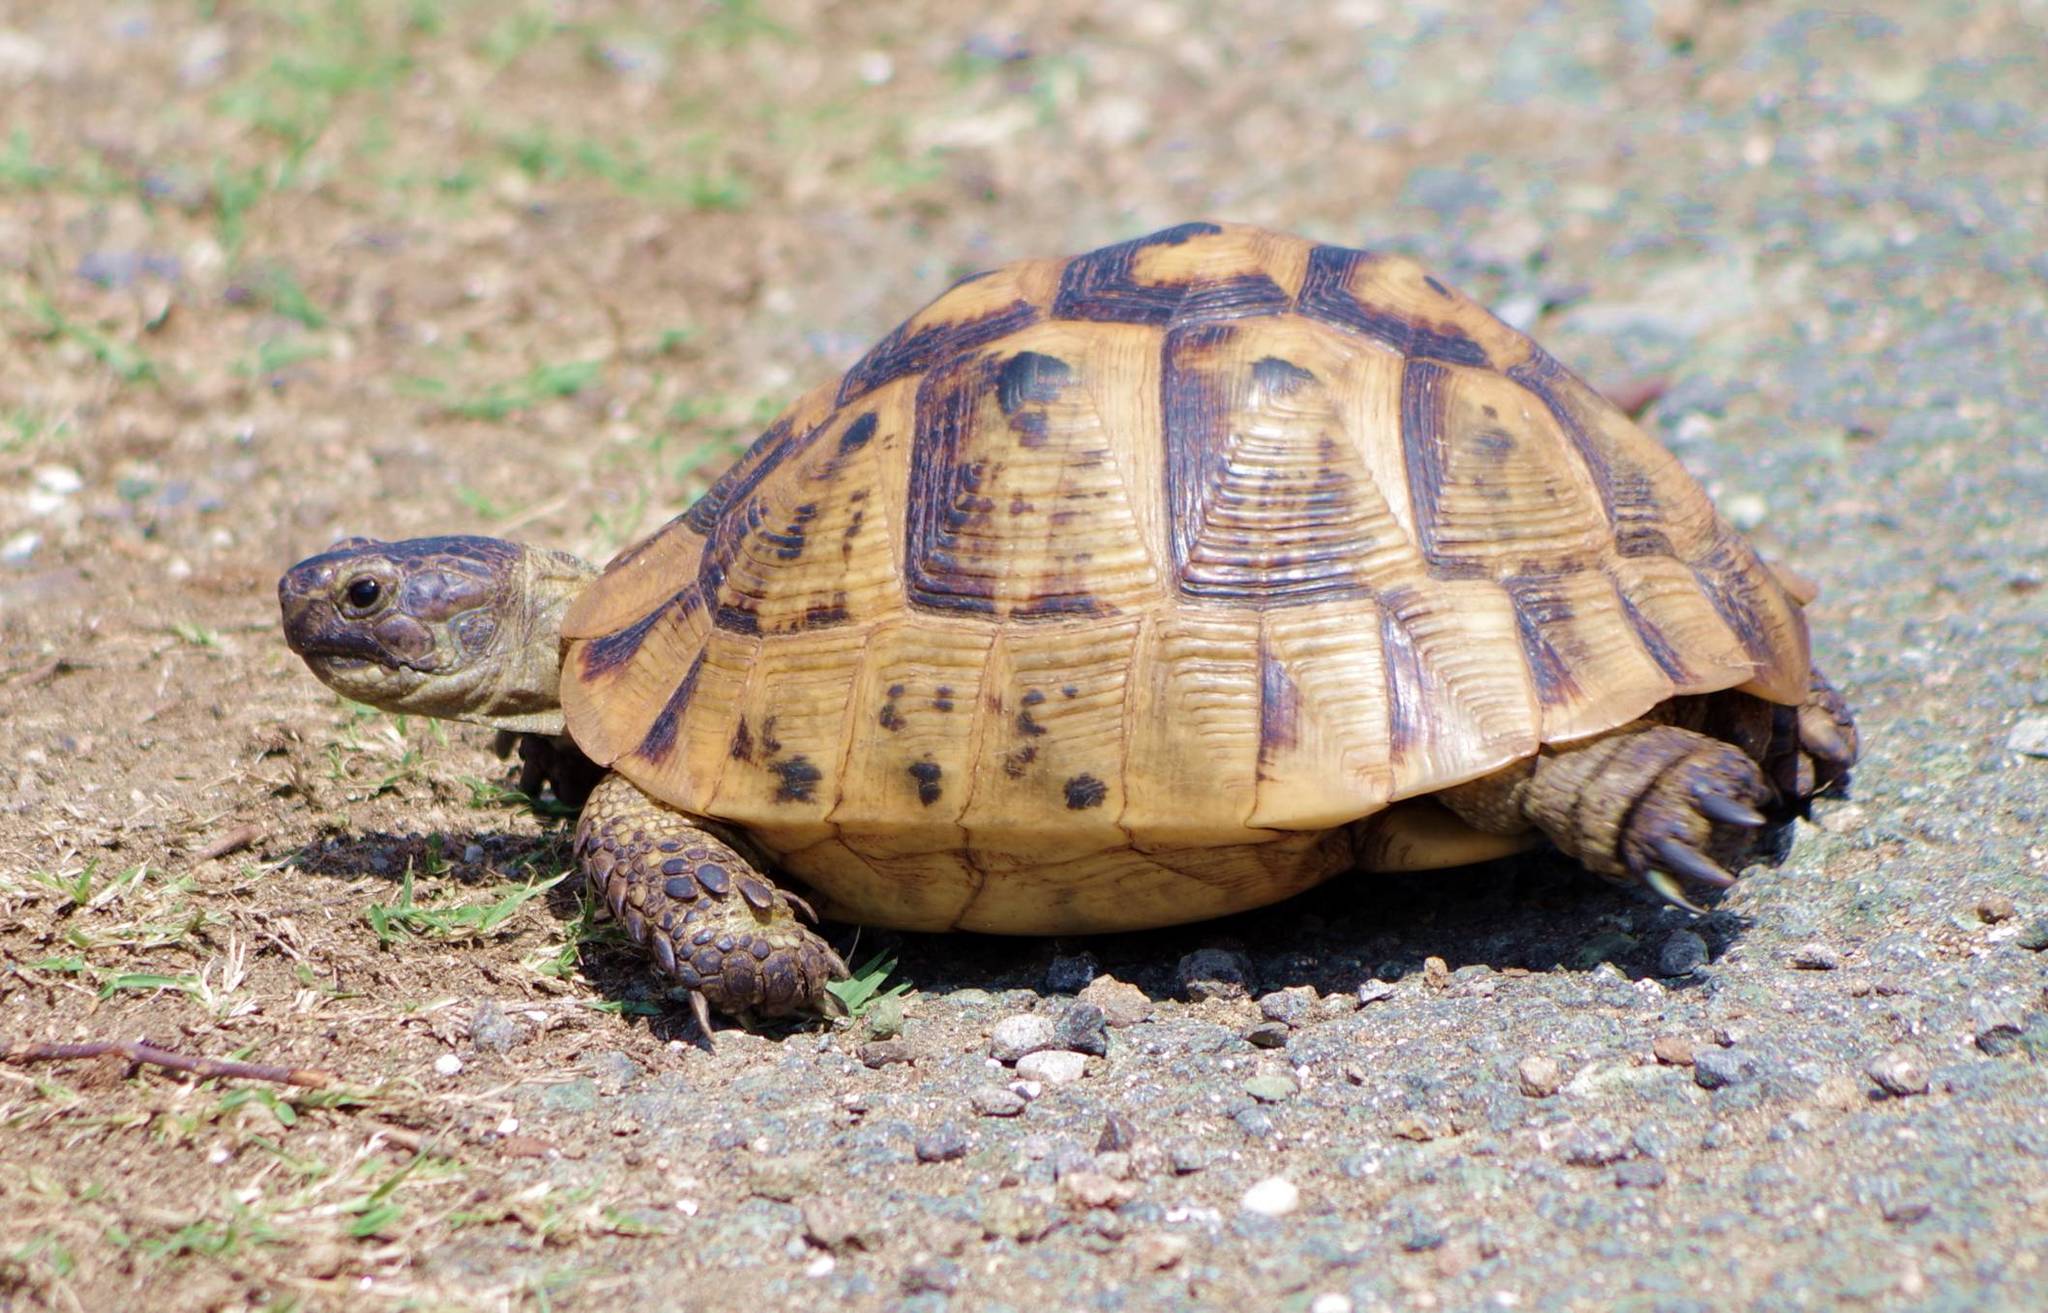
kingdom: Animalia
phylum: Chordata
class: Testudines
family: Testudinidae
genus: Testudo
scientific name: Testudo graeca
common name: Common tortoise
